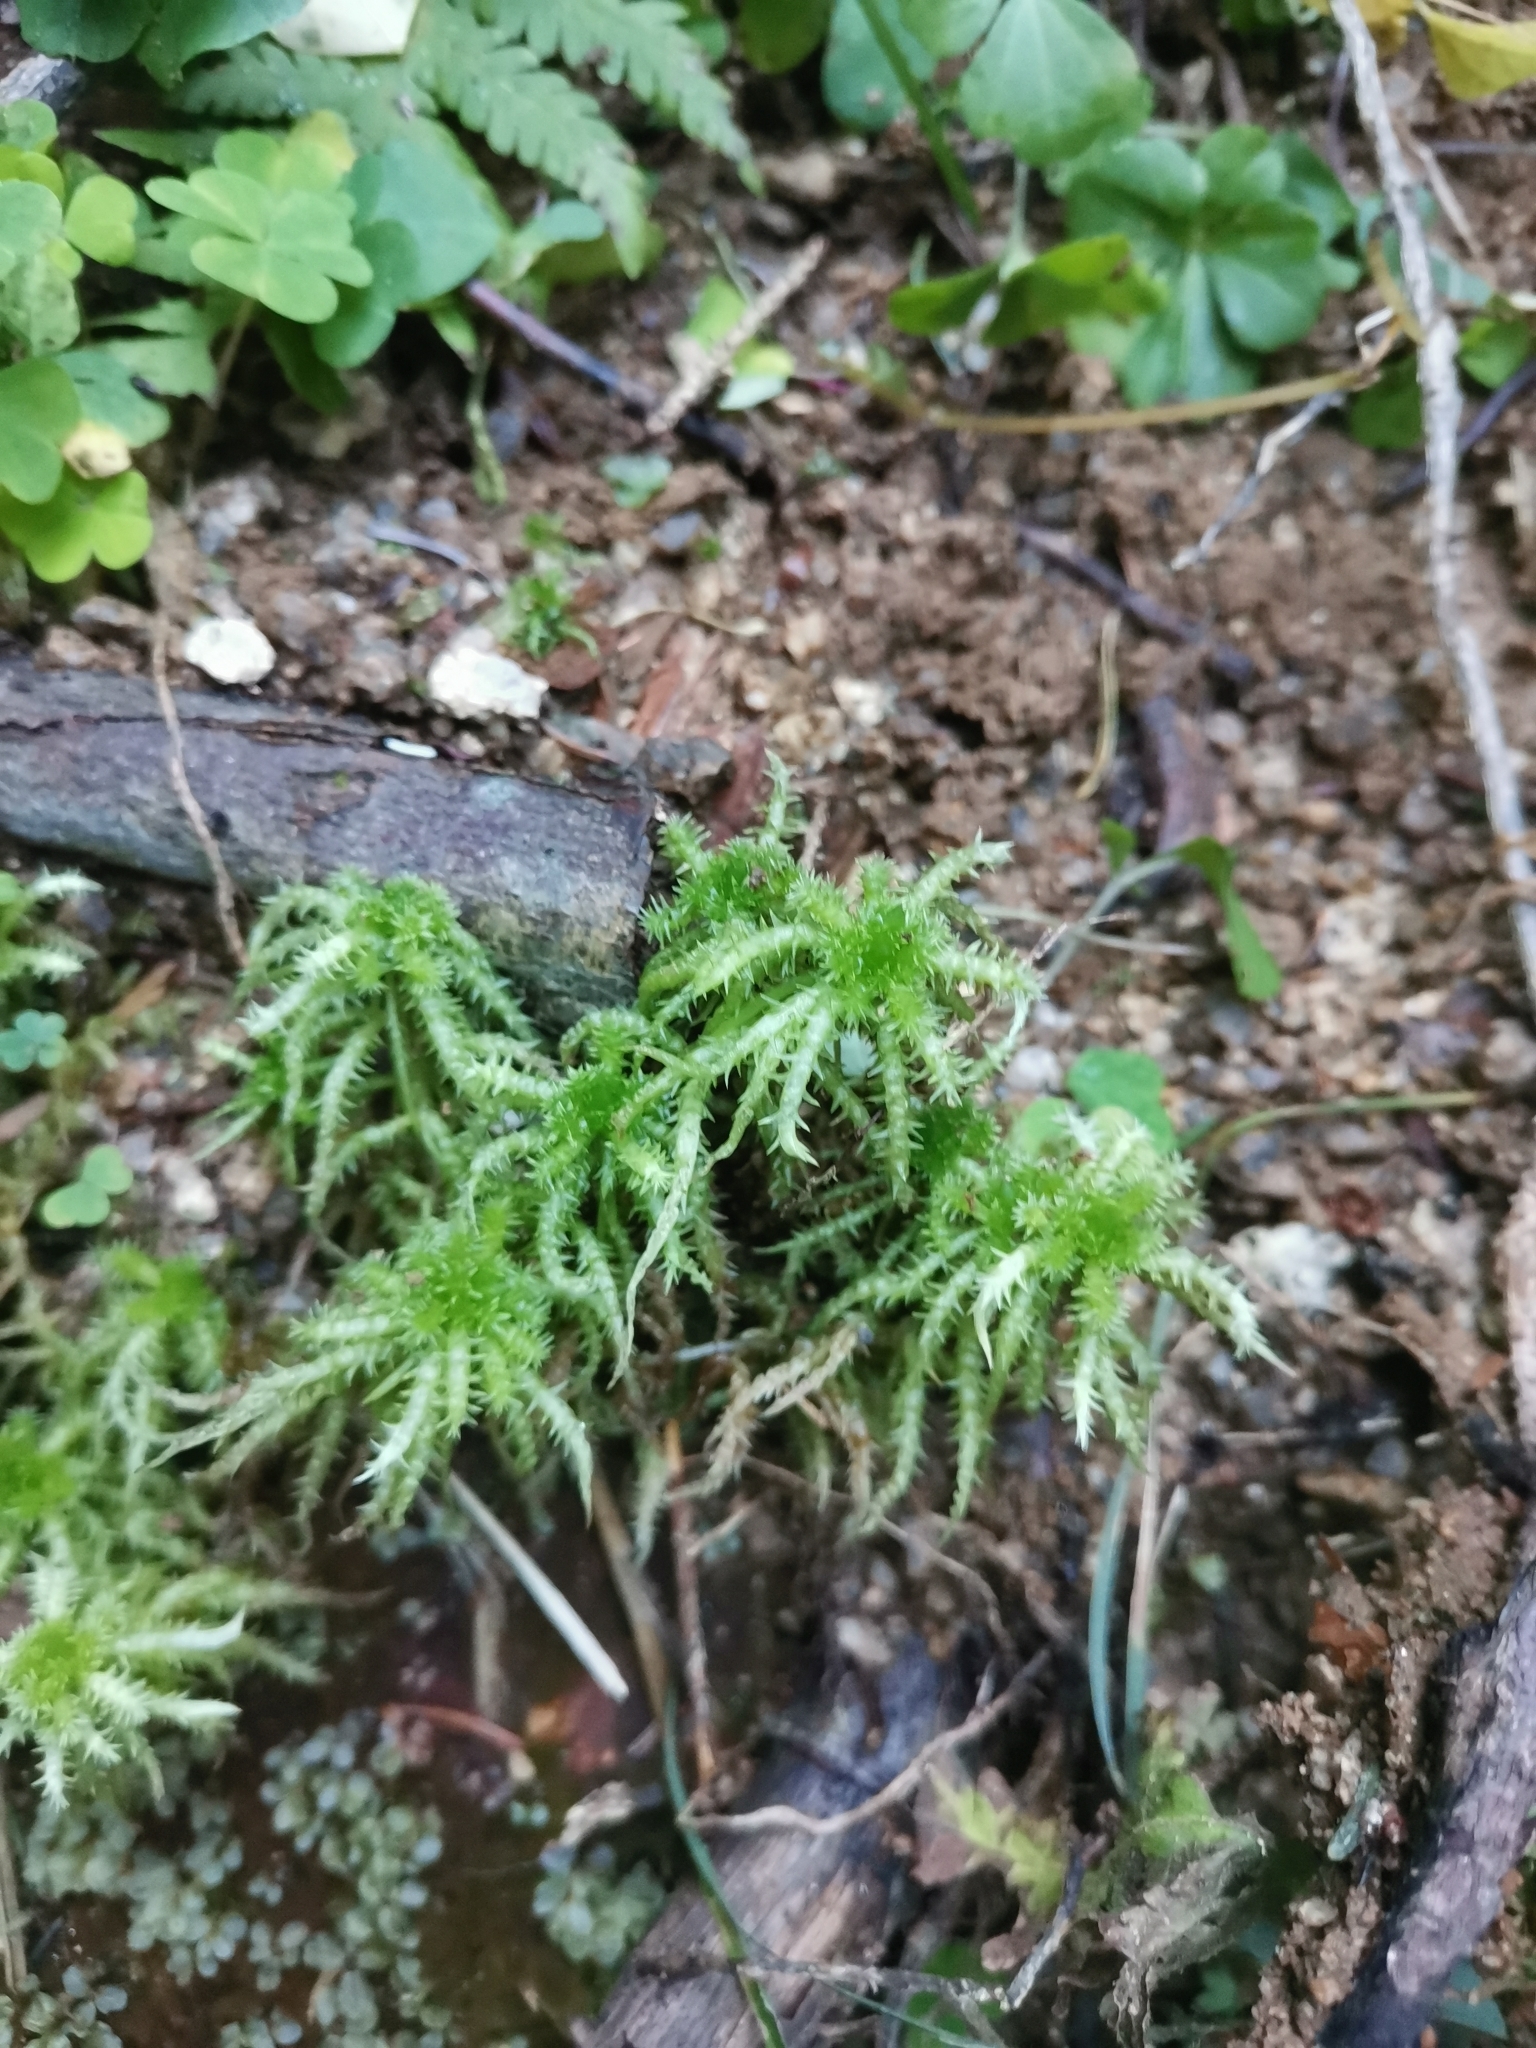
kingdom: Plantae
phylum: Bryophyta
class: Sphagnopsida
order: Sphagnales
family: Sphagnaceae
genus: Sphagnum
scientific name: Sphagnum squarrosum
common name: Shaggy peat moss
